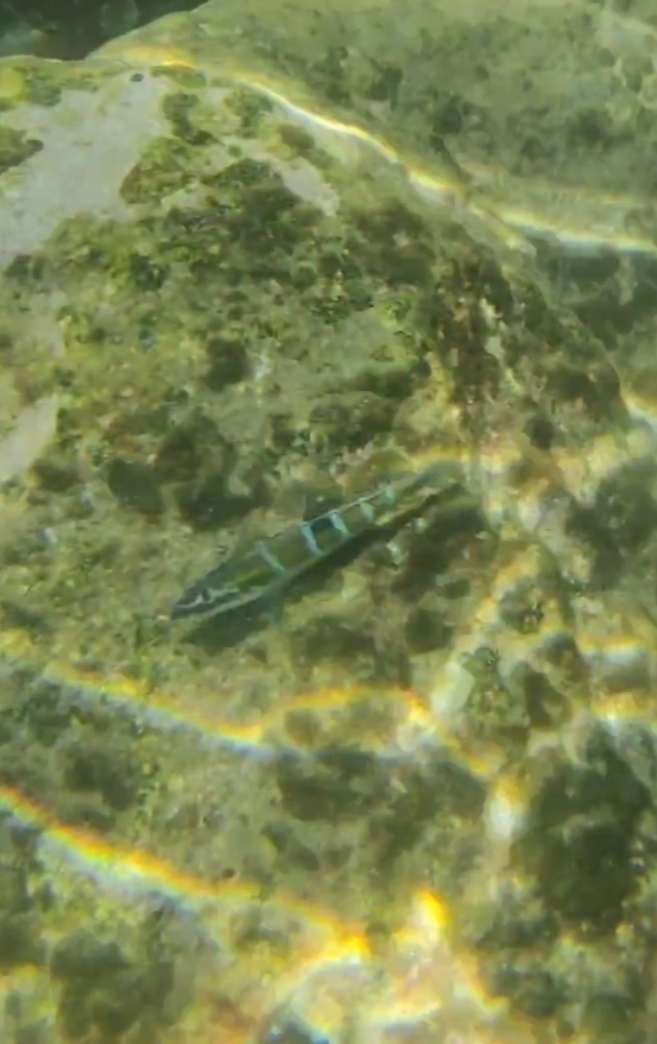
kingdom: Animalia
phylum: Chordata
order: Perciformes
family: Labridae
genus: Thalassoma
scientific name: Thalassoma pavo
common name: Ornate wrasse
